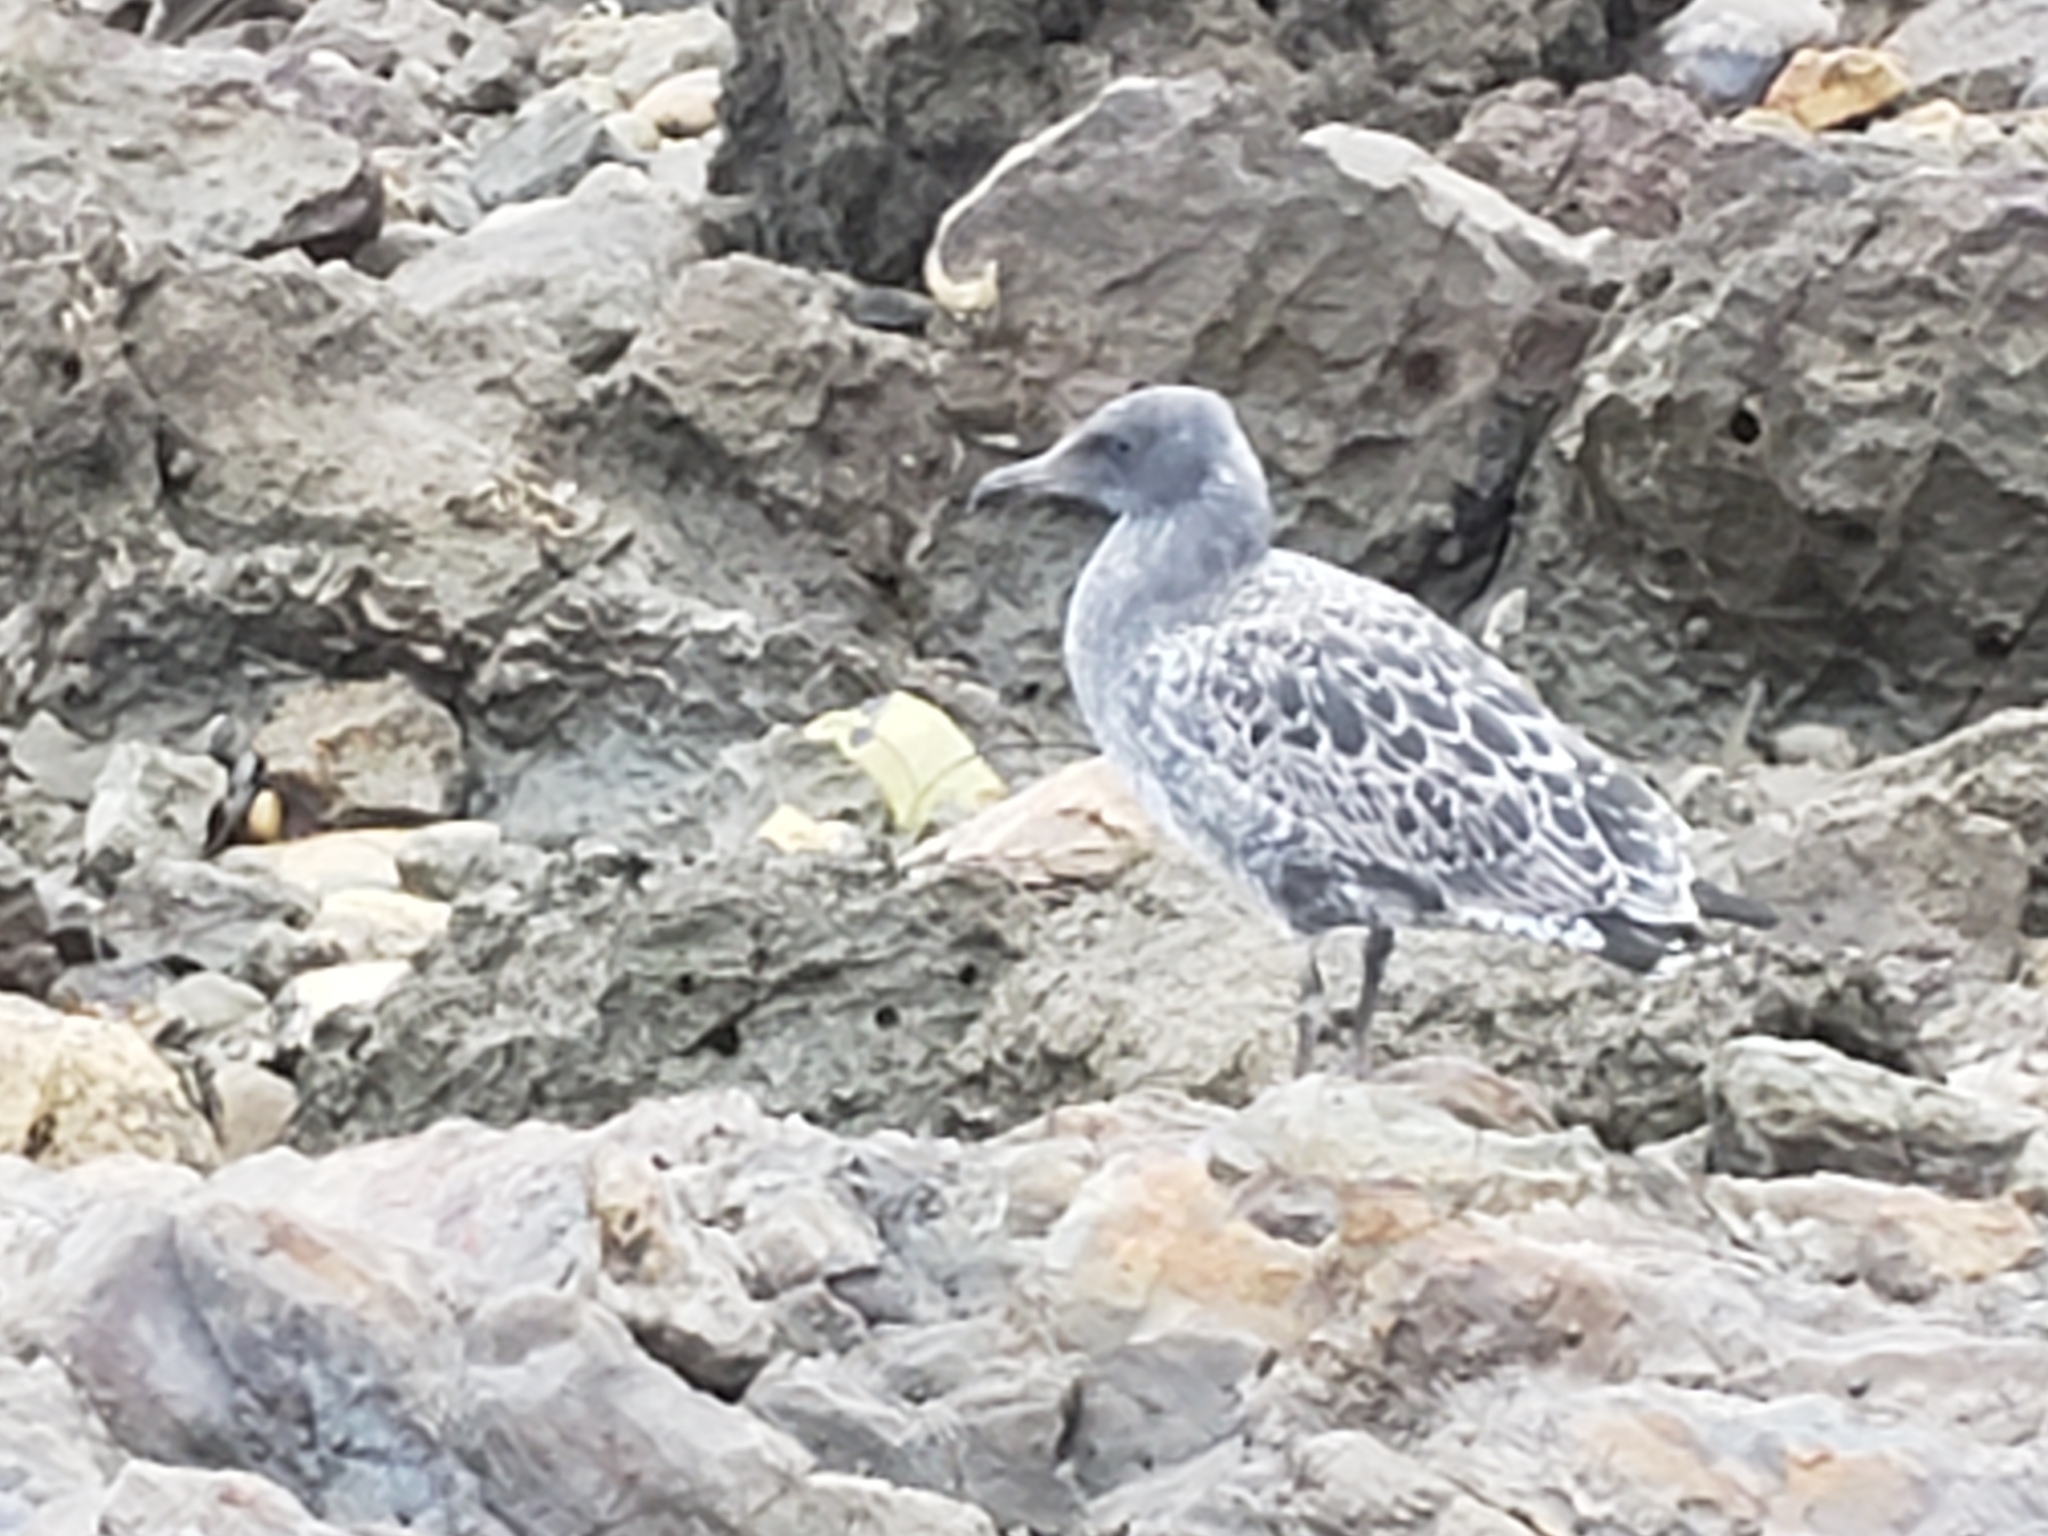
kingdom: Animalia
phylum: Chordata
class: Aves
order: Charadriiformes
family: Laridae
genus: Larus
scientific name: Larus occidentalis
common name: Western gull
